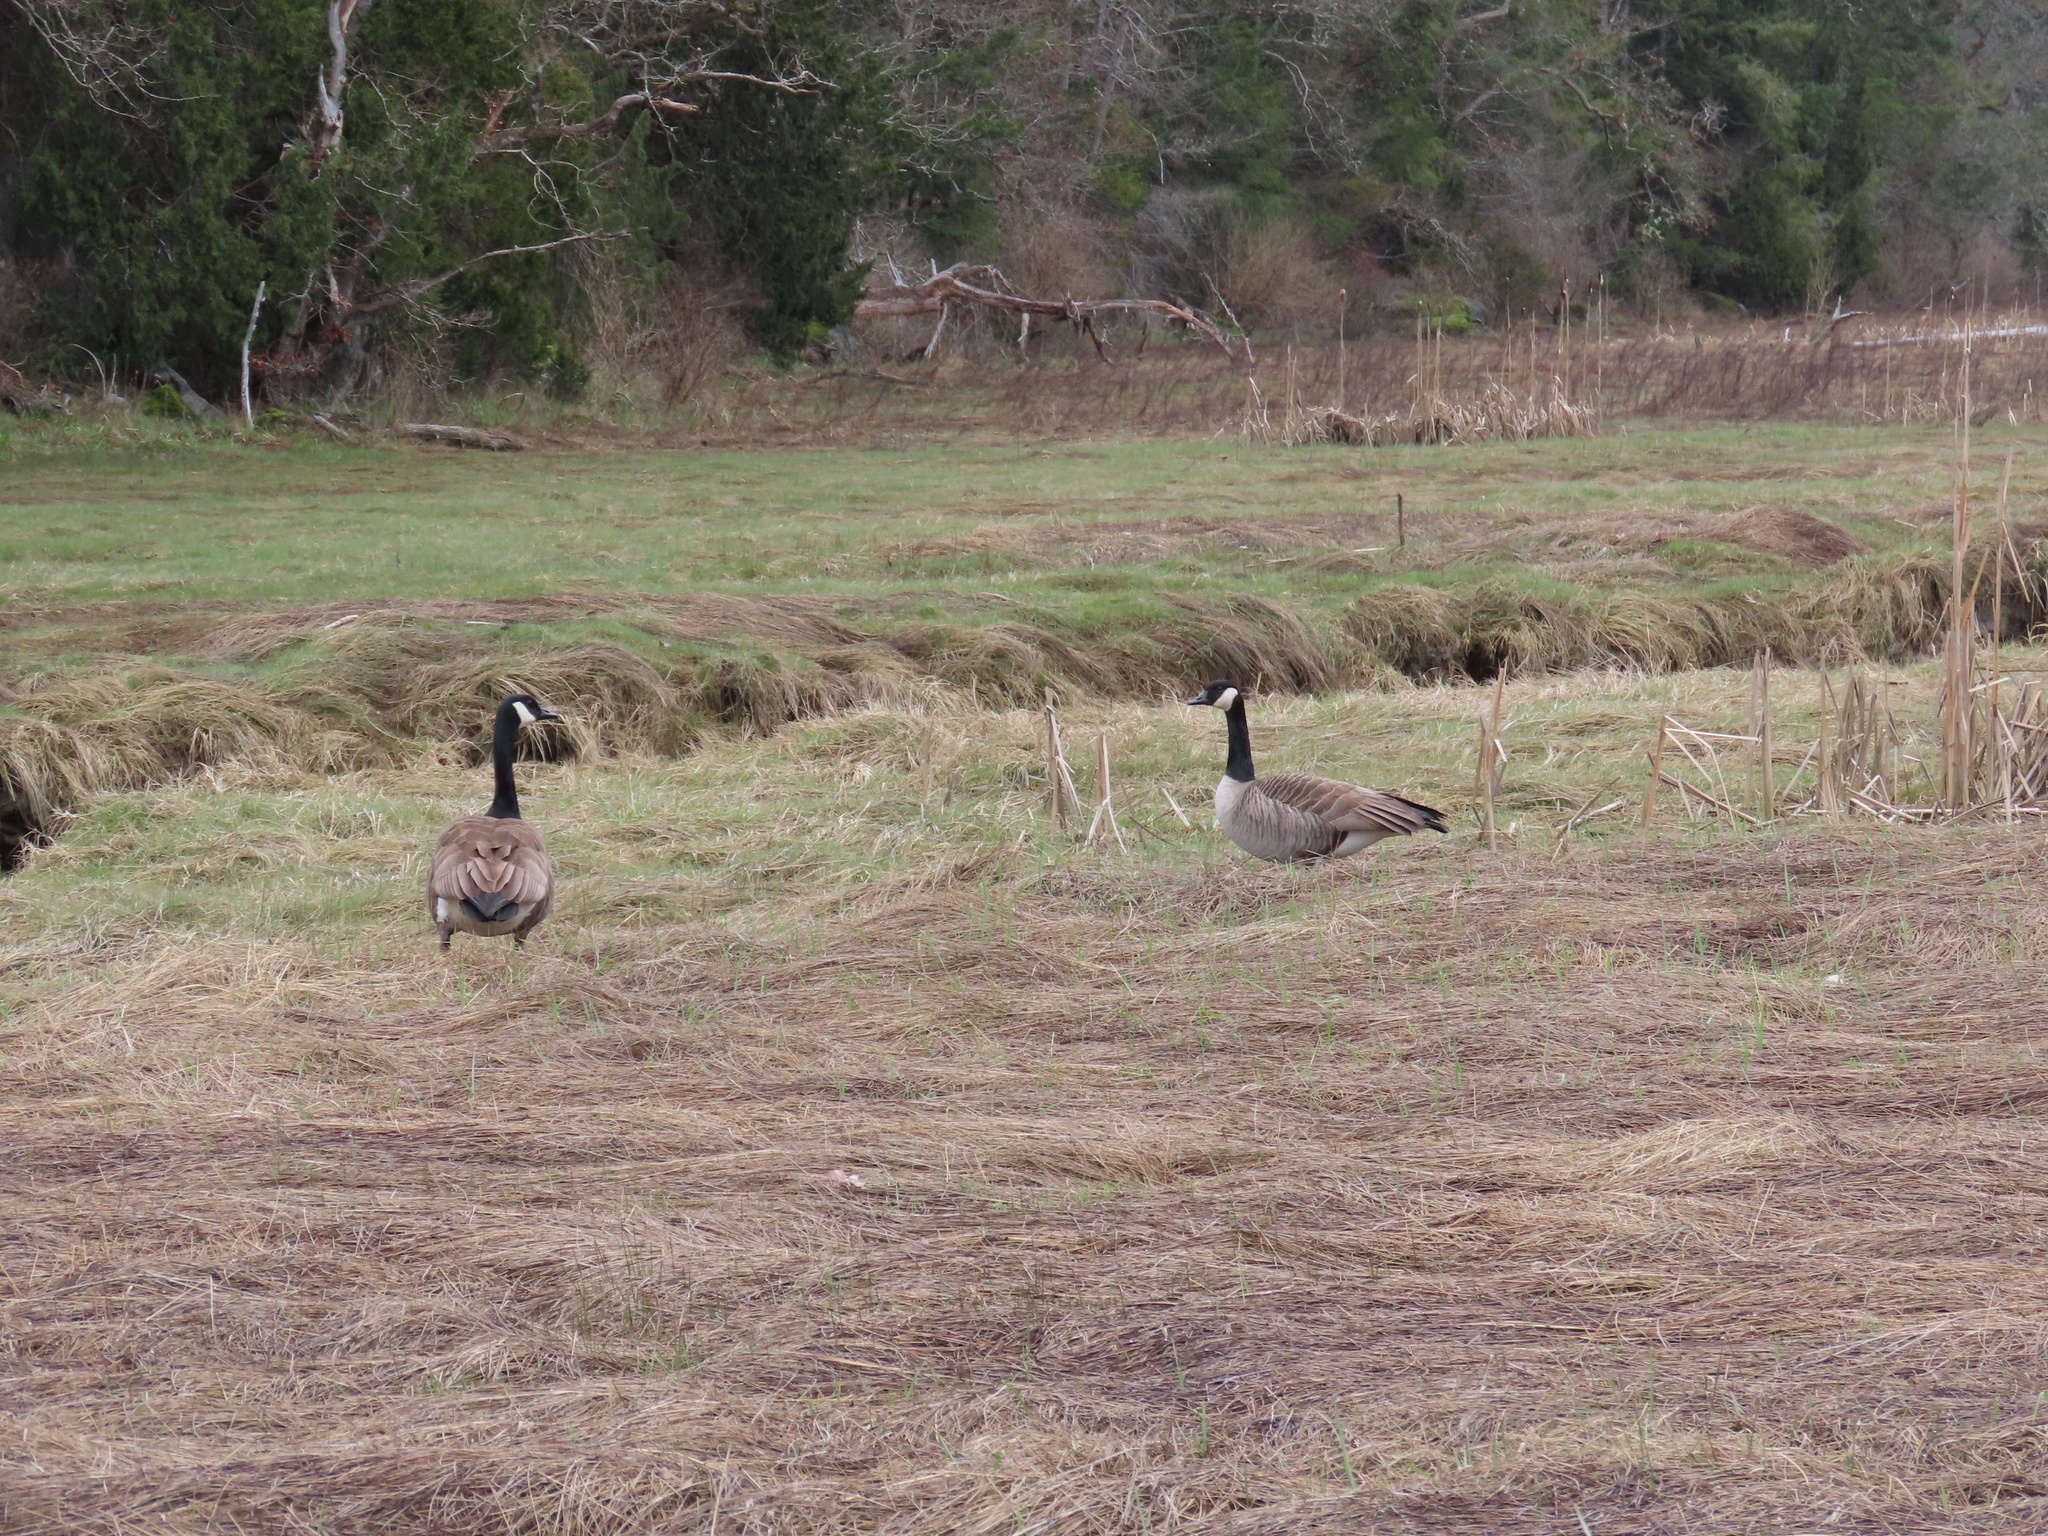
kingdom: Animalia
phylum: Chordata
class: Aves
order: Anseriformes
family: Anatidae
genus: Branta
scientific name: Branta canadensis
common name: Canada goose
